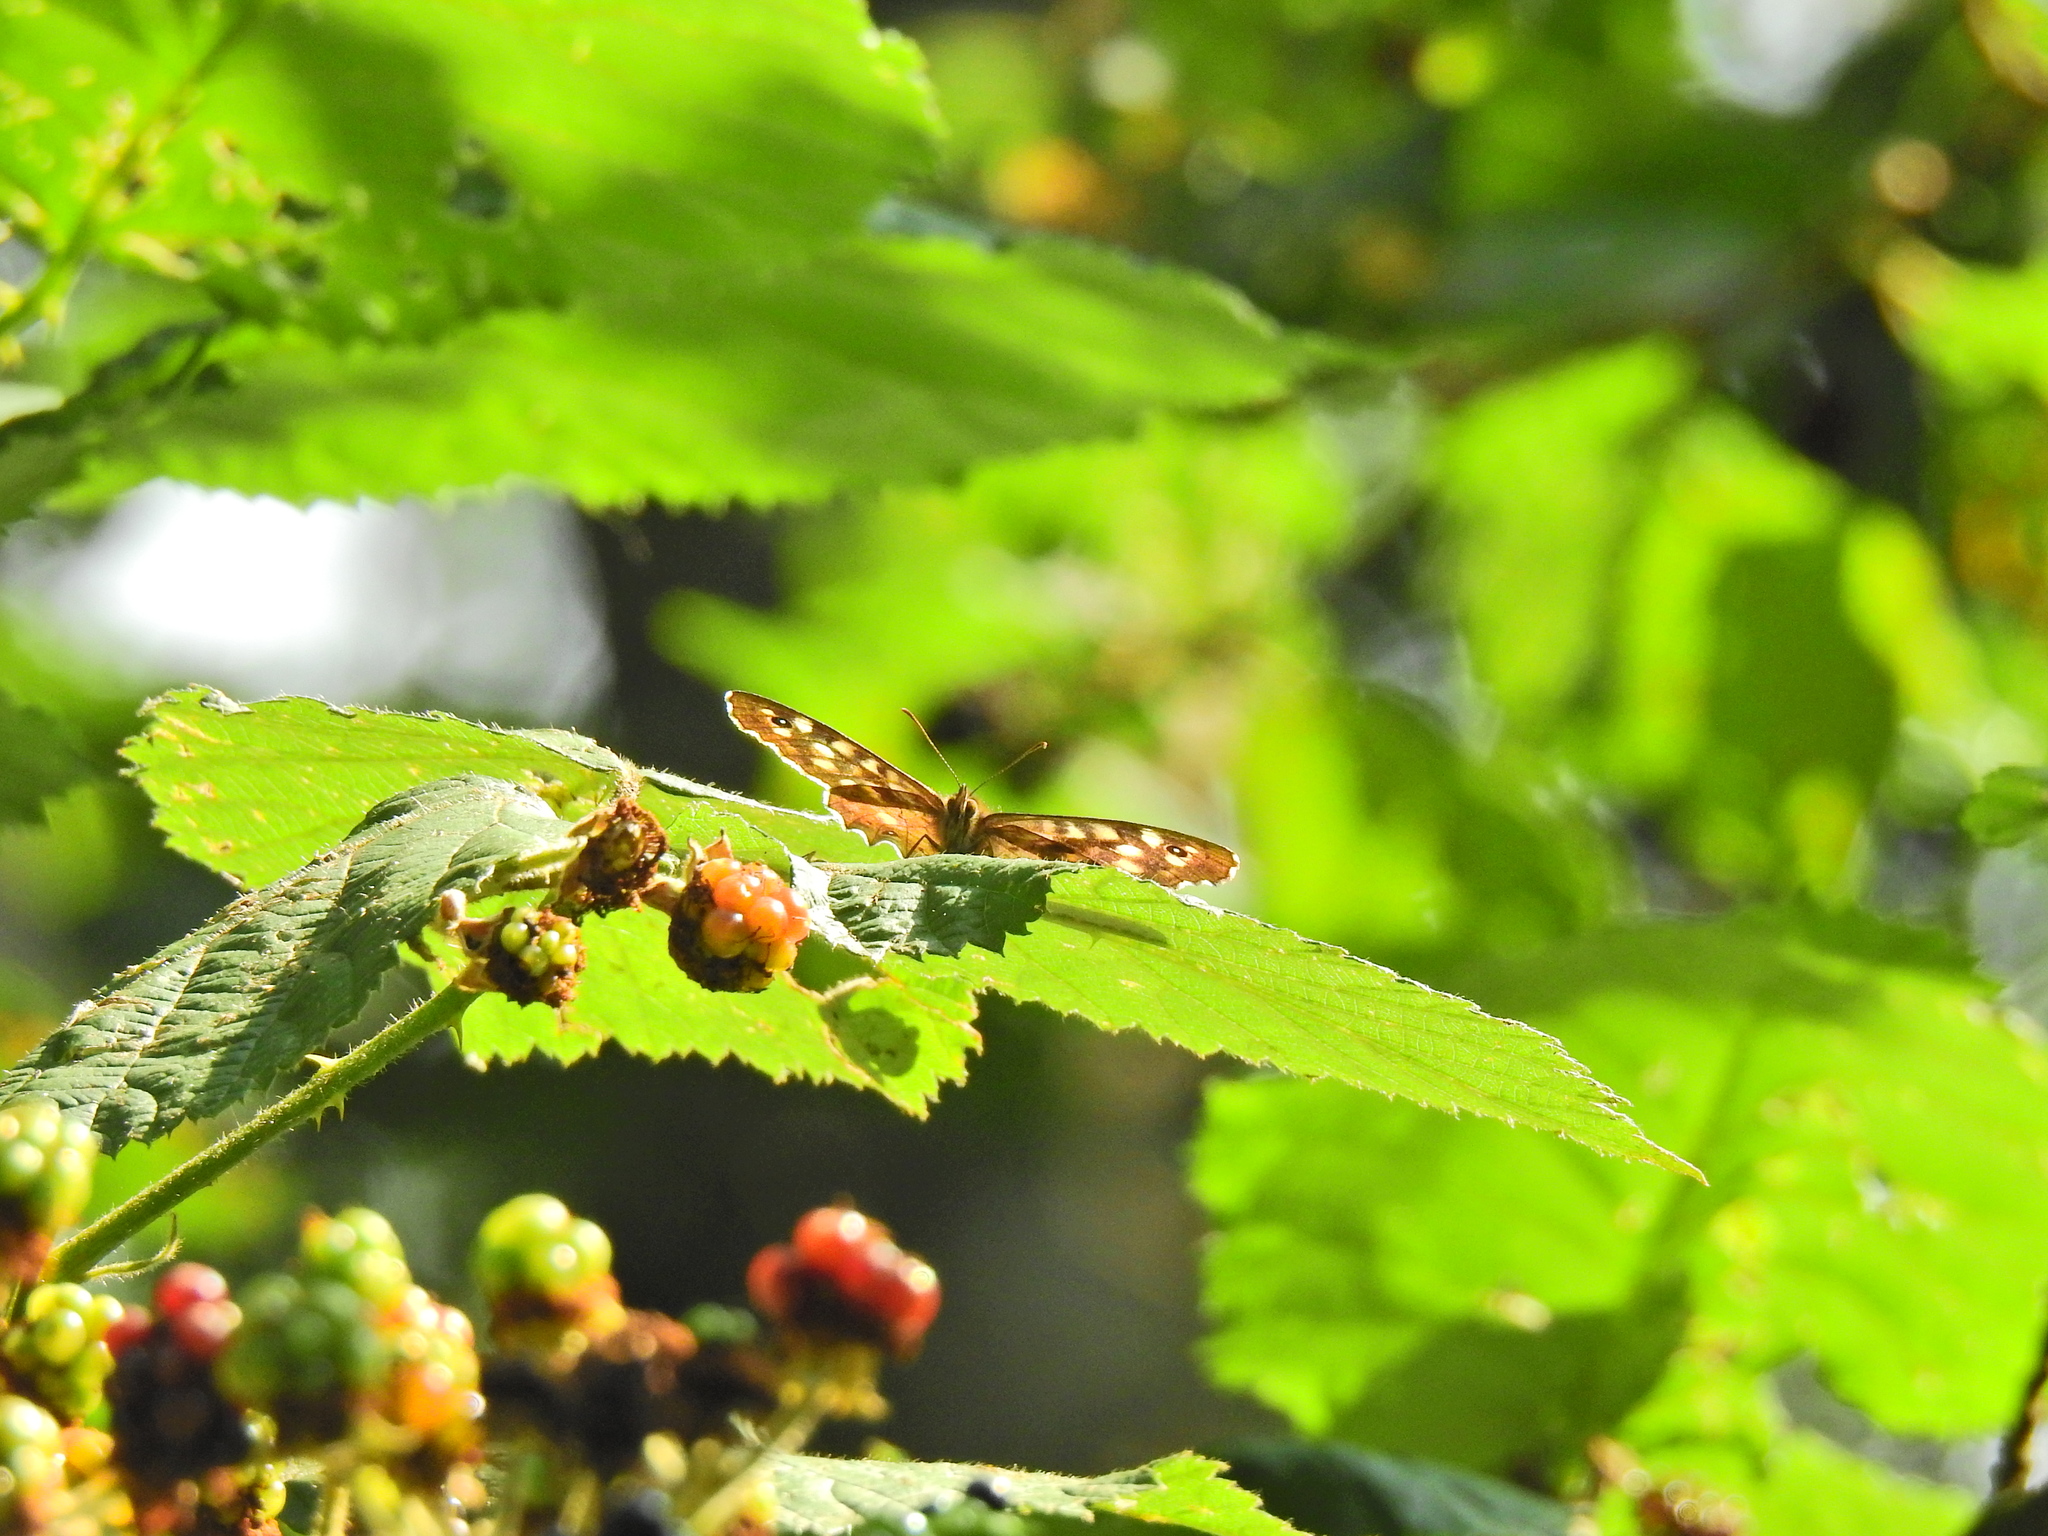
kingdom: Animalia
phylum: Arthropoda
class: Insecta
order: Lepidoptera
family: Nymphalidae
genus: Pararge
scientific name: Pararge aegeria
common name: Speckled wood
